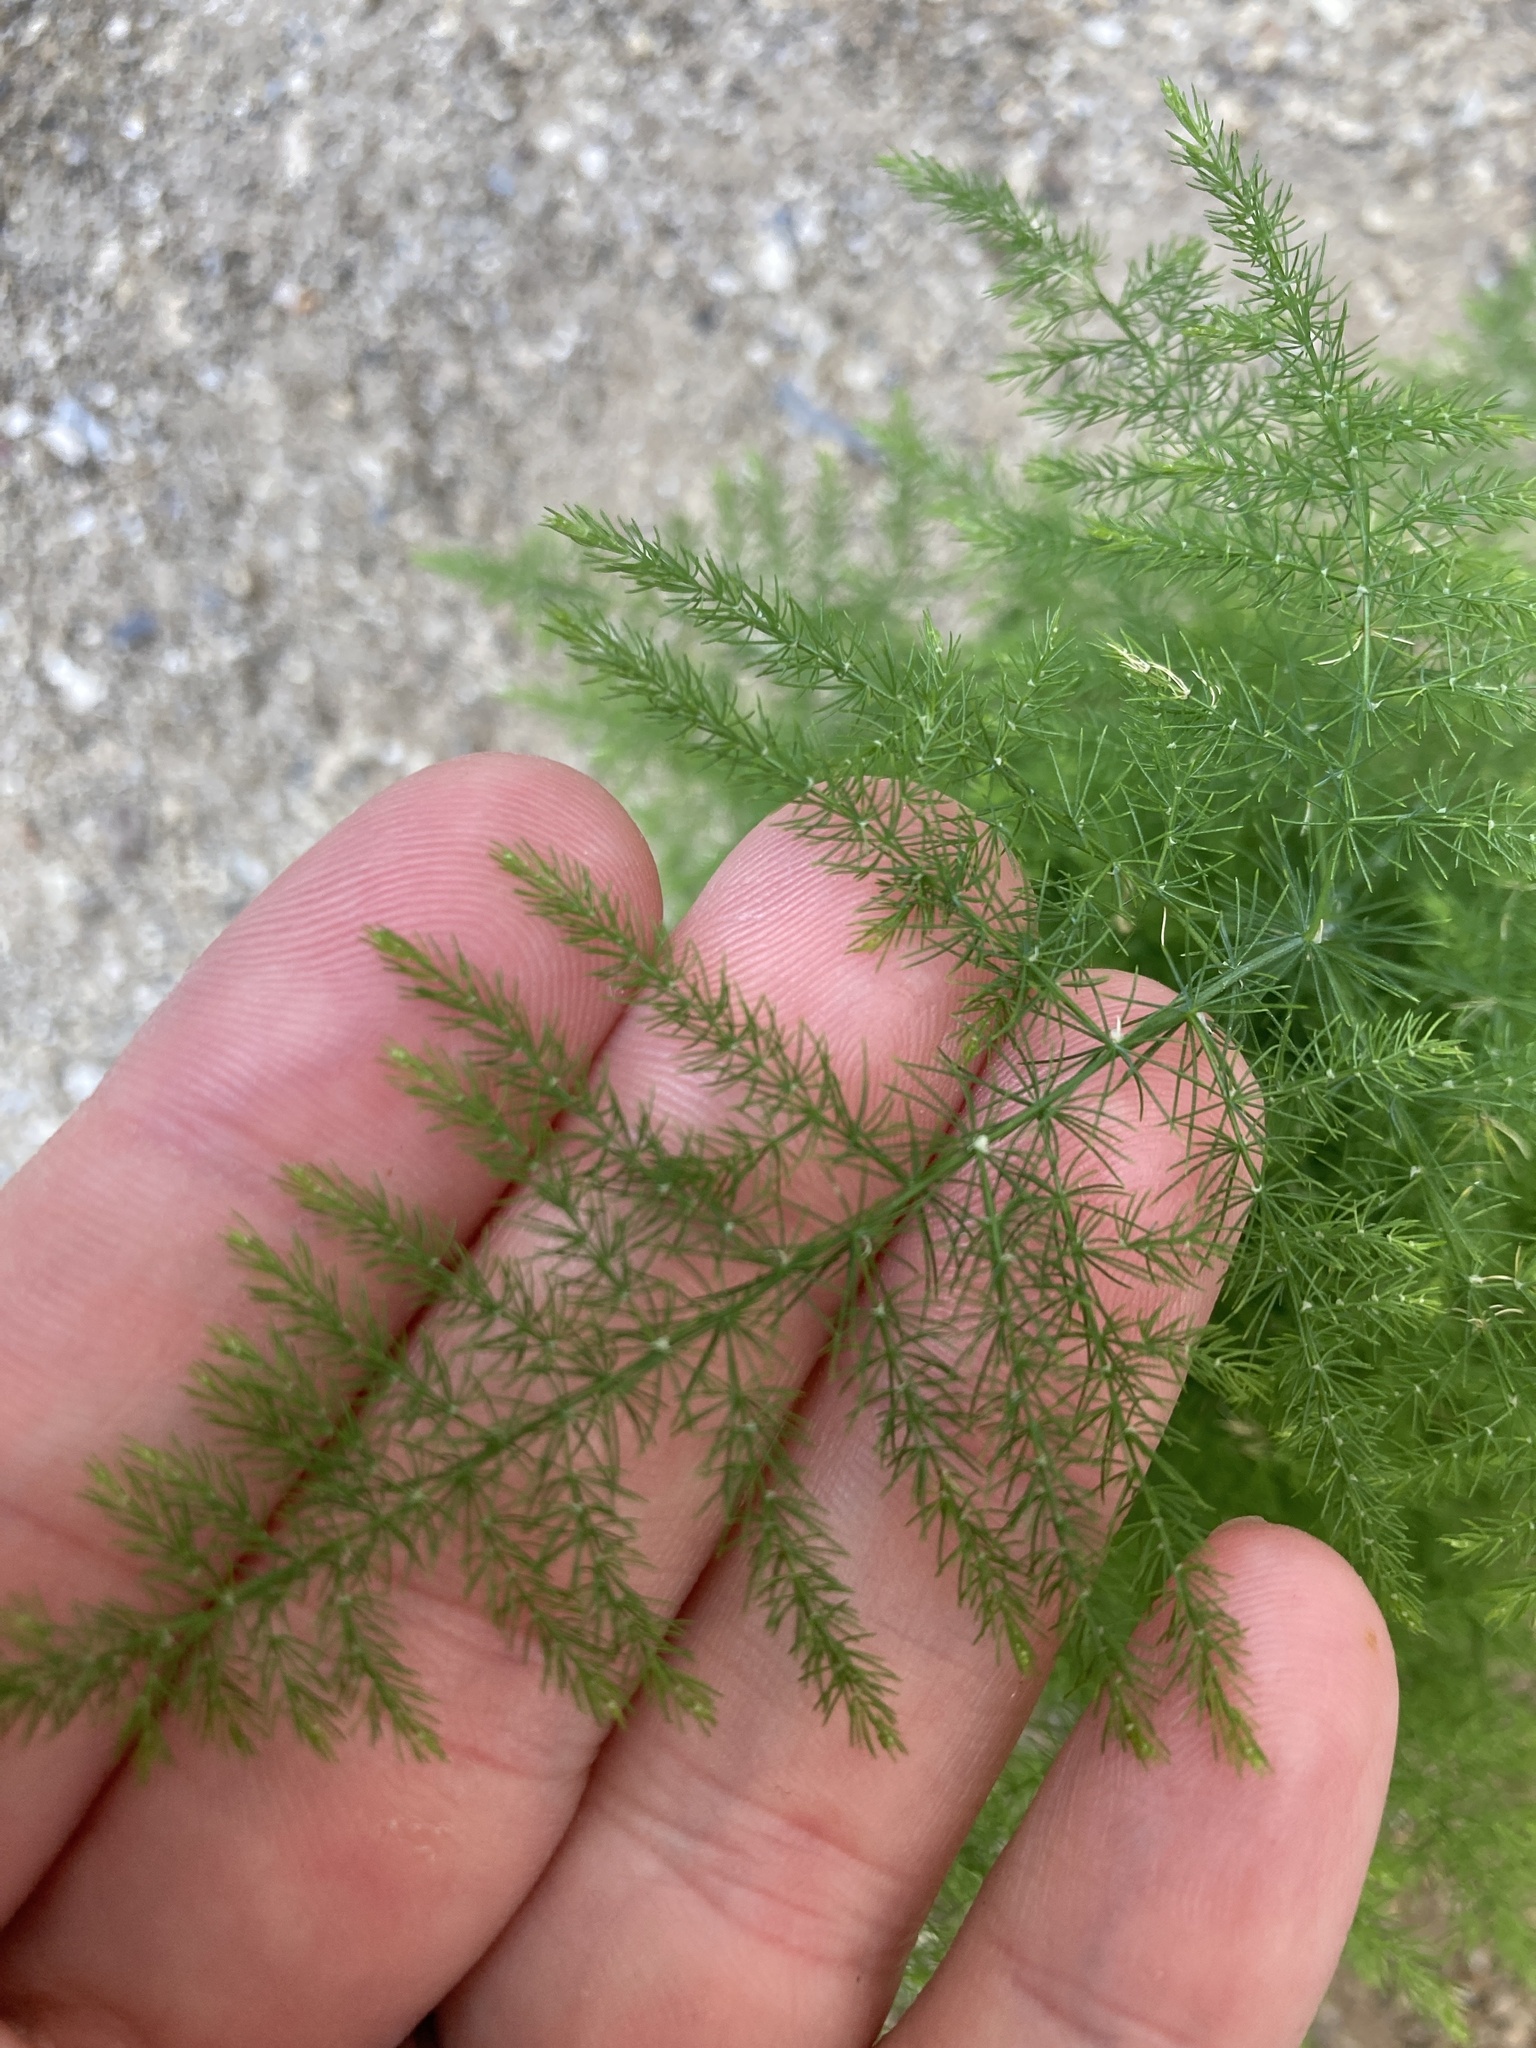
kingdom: Plantae
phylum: Tracheophyta
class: Liliopsida
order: Asparagales
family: Asparagaceae
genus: Asparagus
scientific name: Asparagus setaceus
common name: Common asparagus fern
